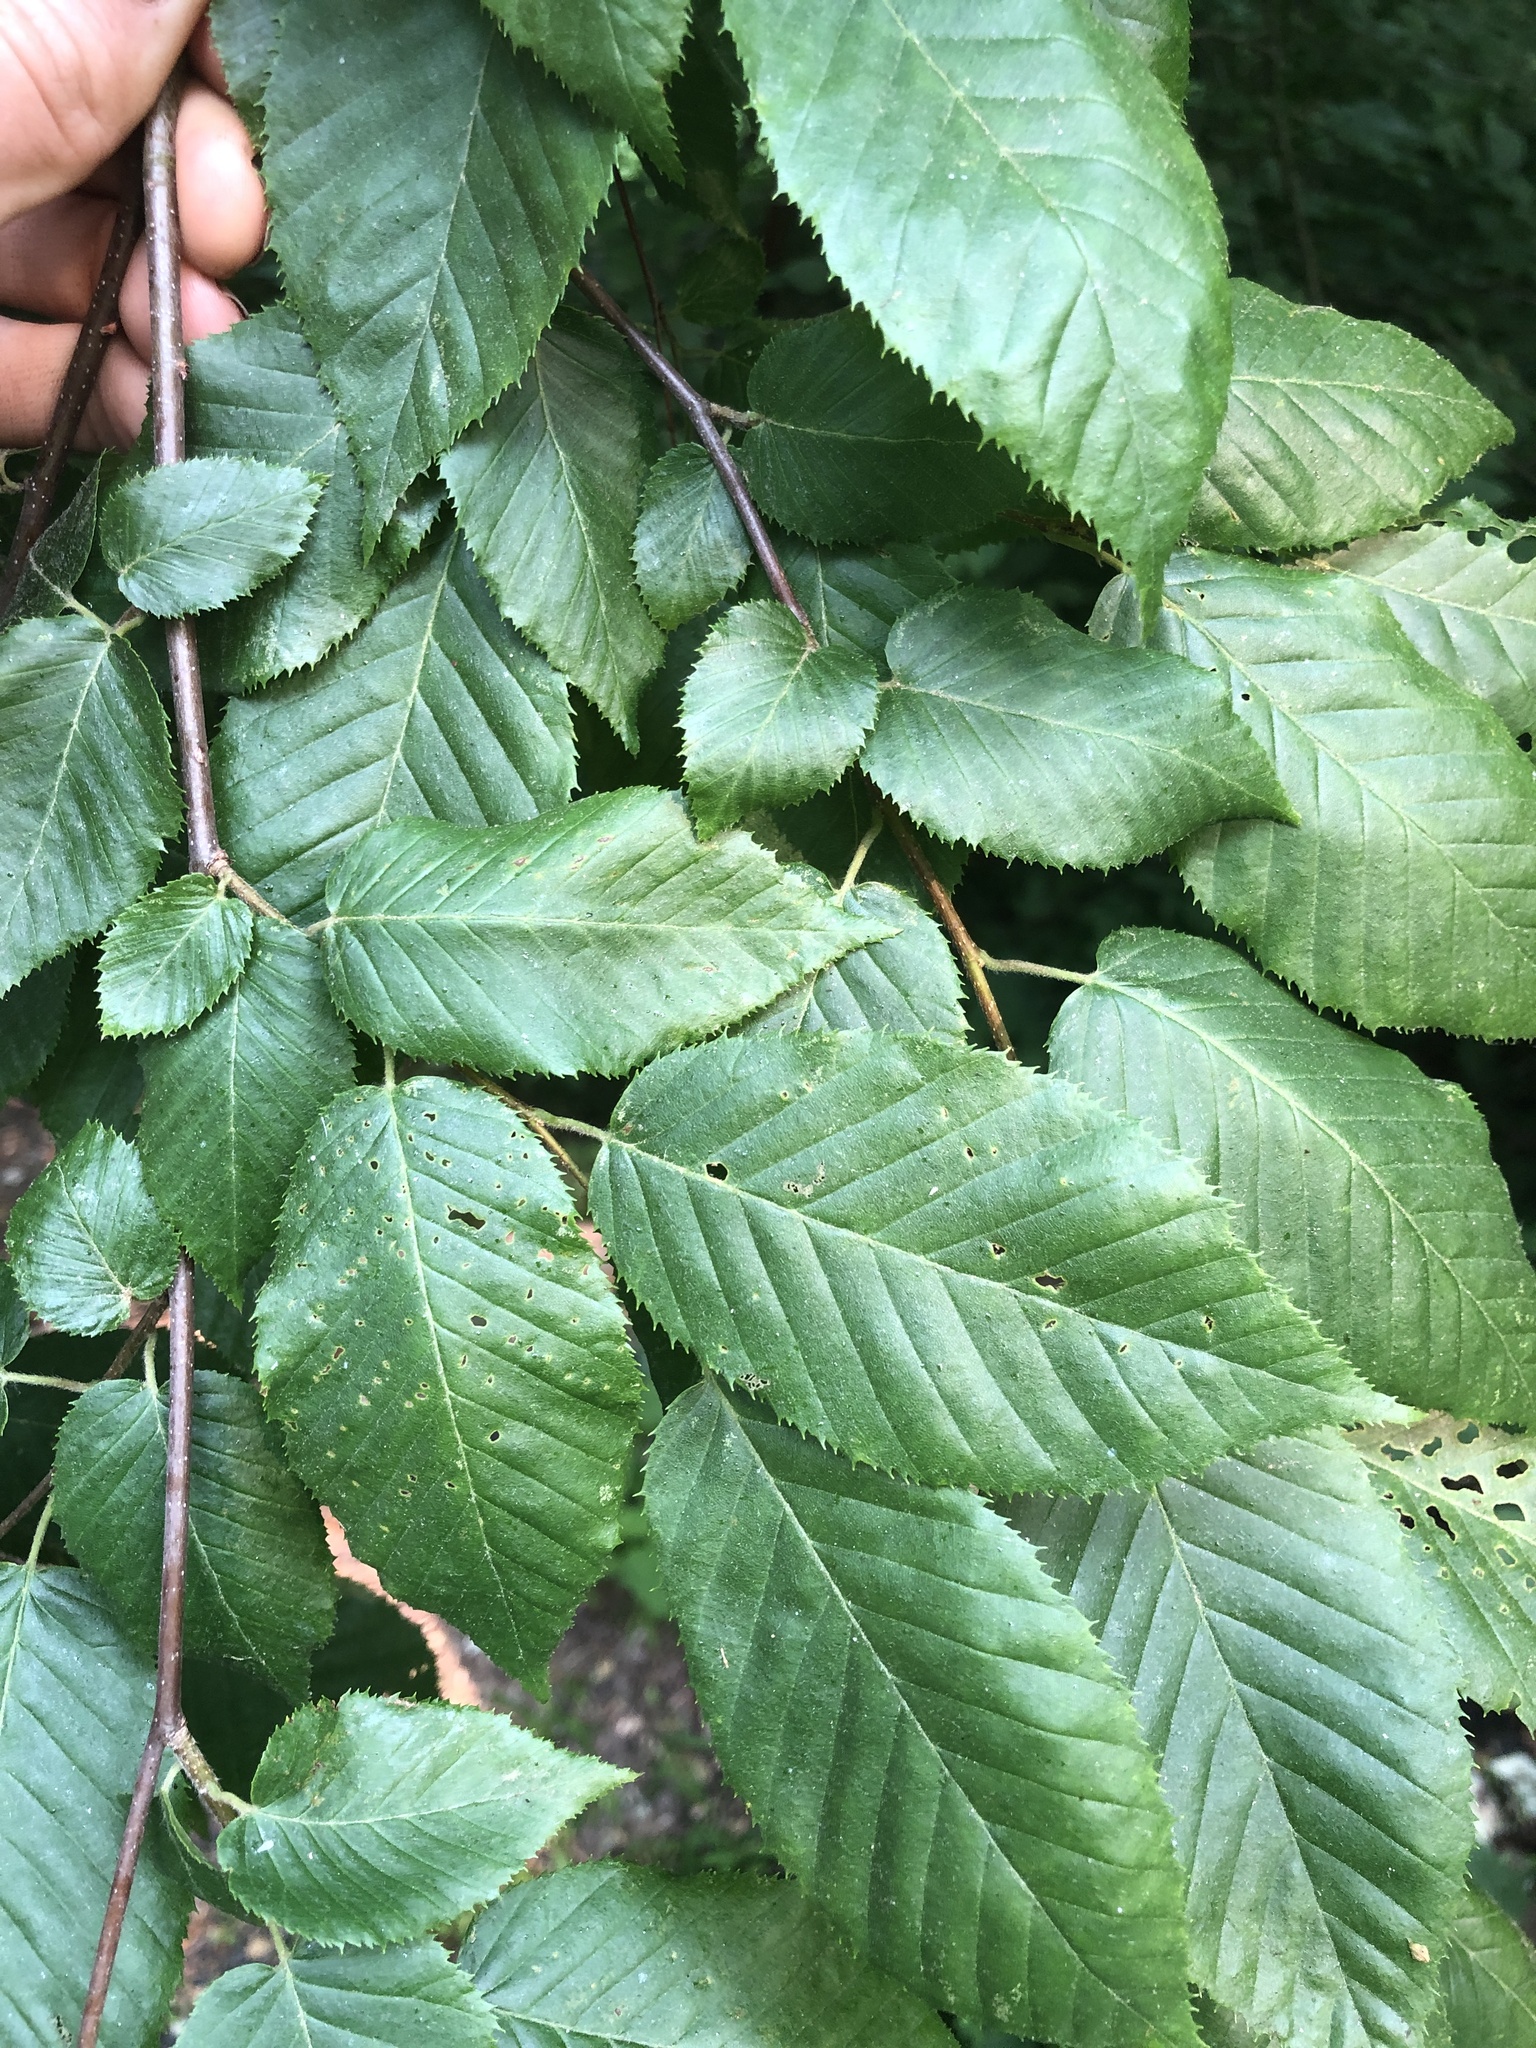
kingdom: Plantae
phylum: Tracheophyta
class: Magnoliopsida
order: Fagales
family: Betulaceae
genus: Carpinus
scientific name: Carpinus caroliniana
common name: American hornbeam
